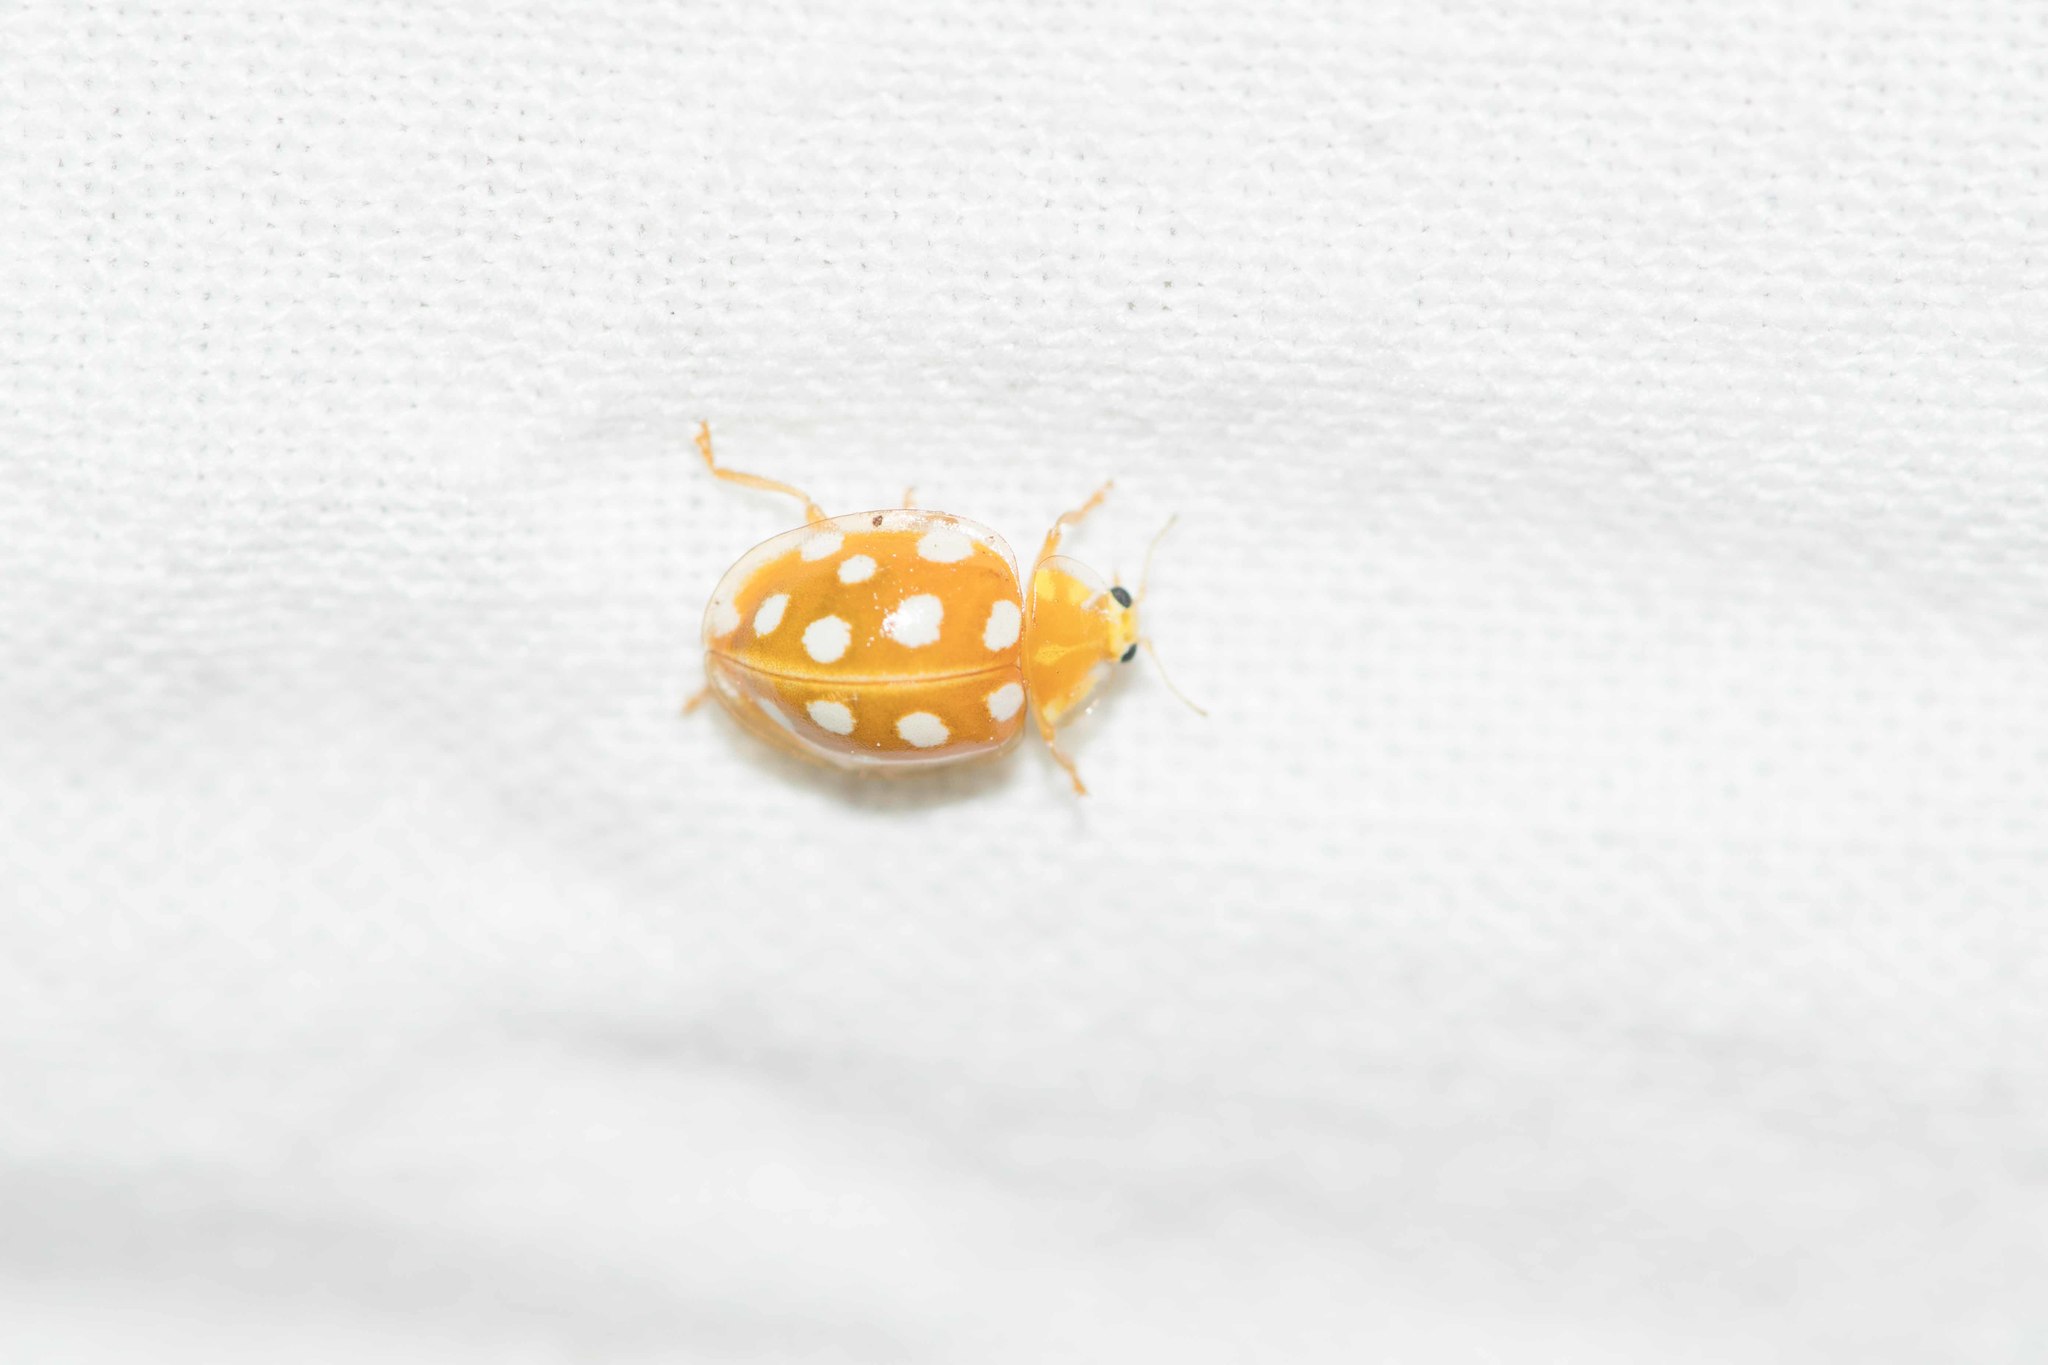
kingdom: Animalia
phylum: Arthropoda
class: Insecta
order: Coleoptera
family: Coccinellidae
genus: Halyzia
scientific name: Halyzia sedecimguttata
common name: Orange ladybird
